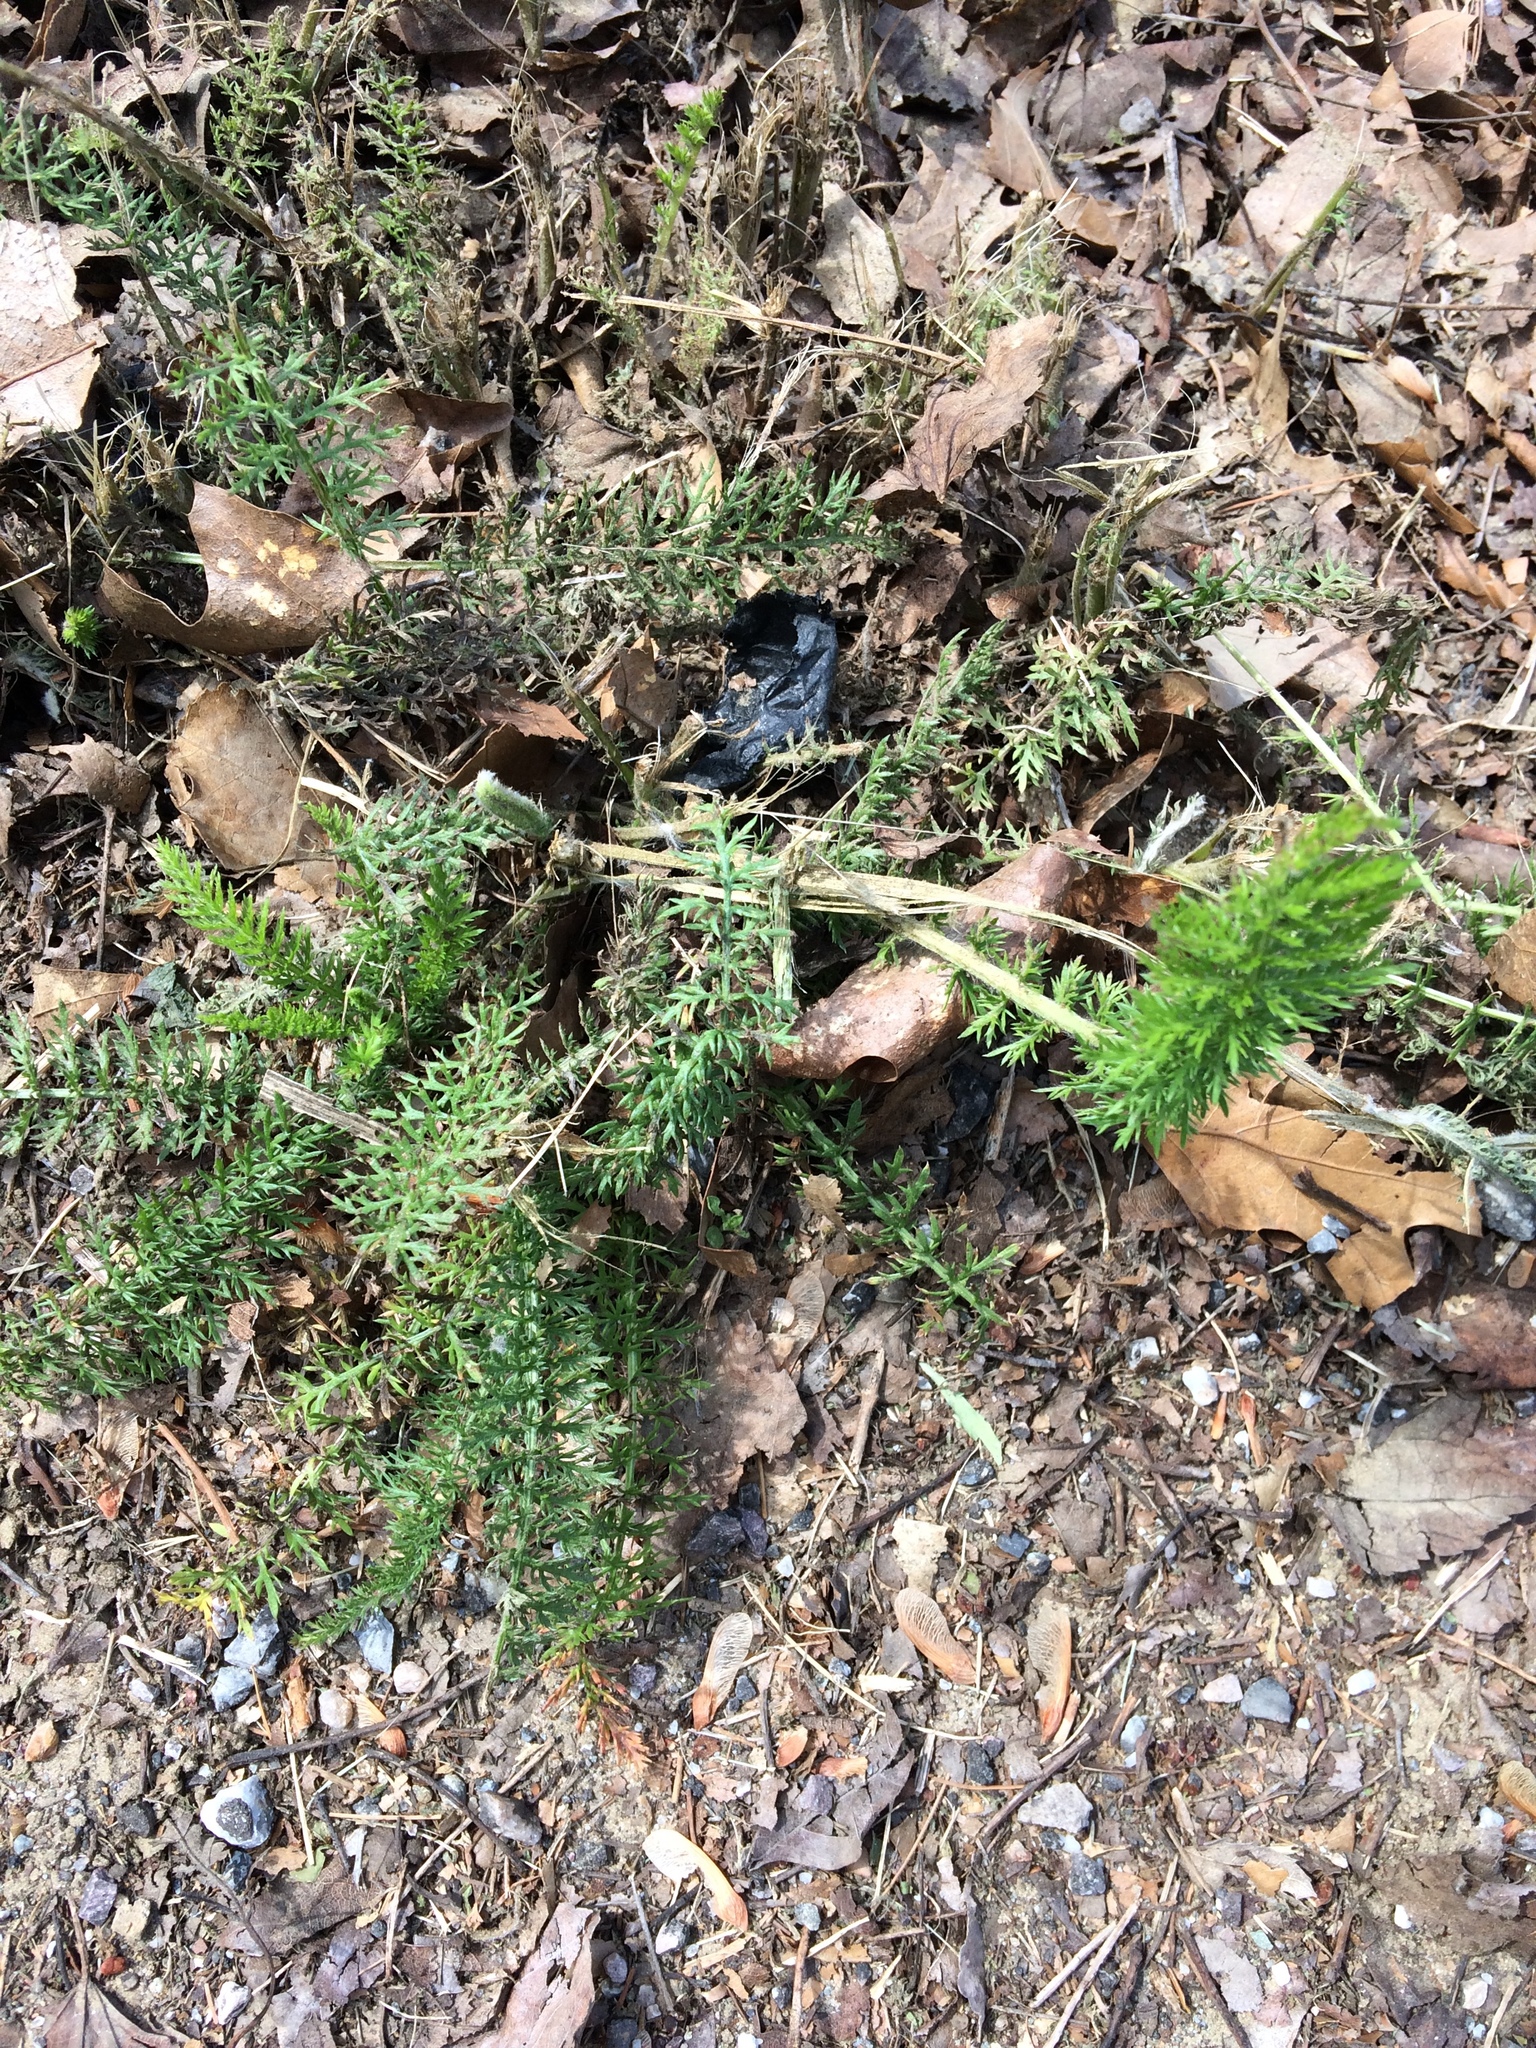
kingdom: Plantae
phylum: Tracheophyta
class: Magnoliopsida
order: Asterales
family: Asteraceae
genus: Achillea
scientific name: Achillea millefolium
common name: Yarrow
